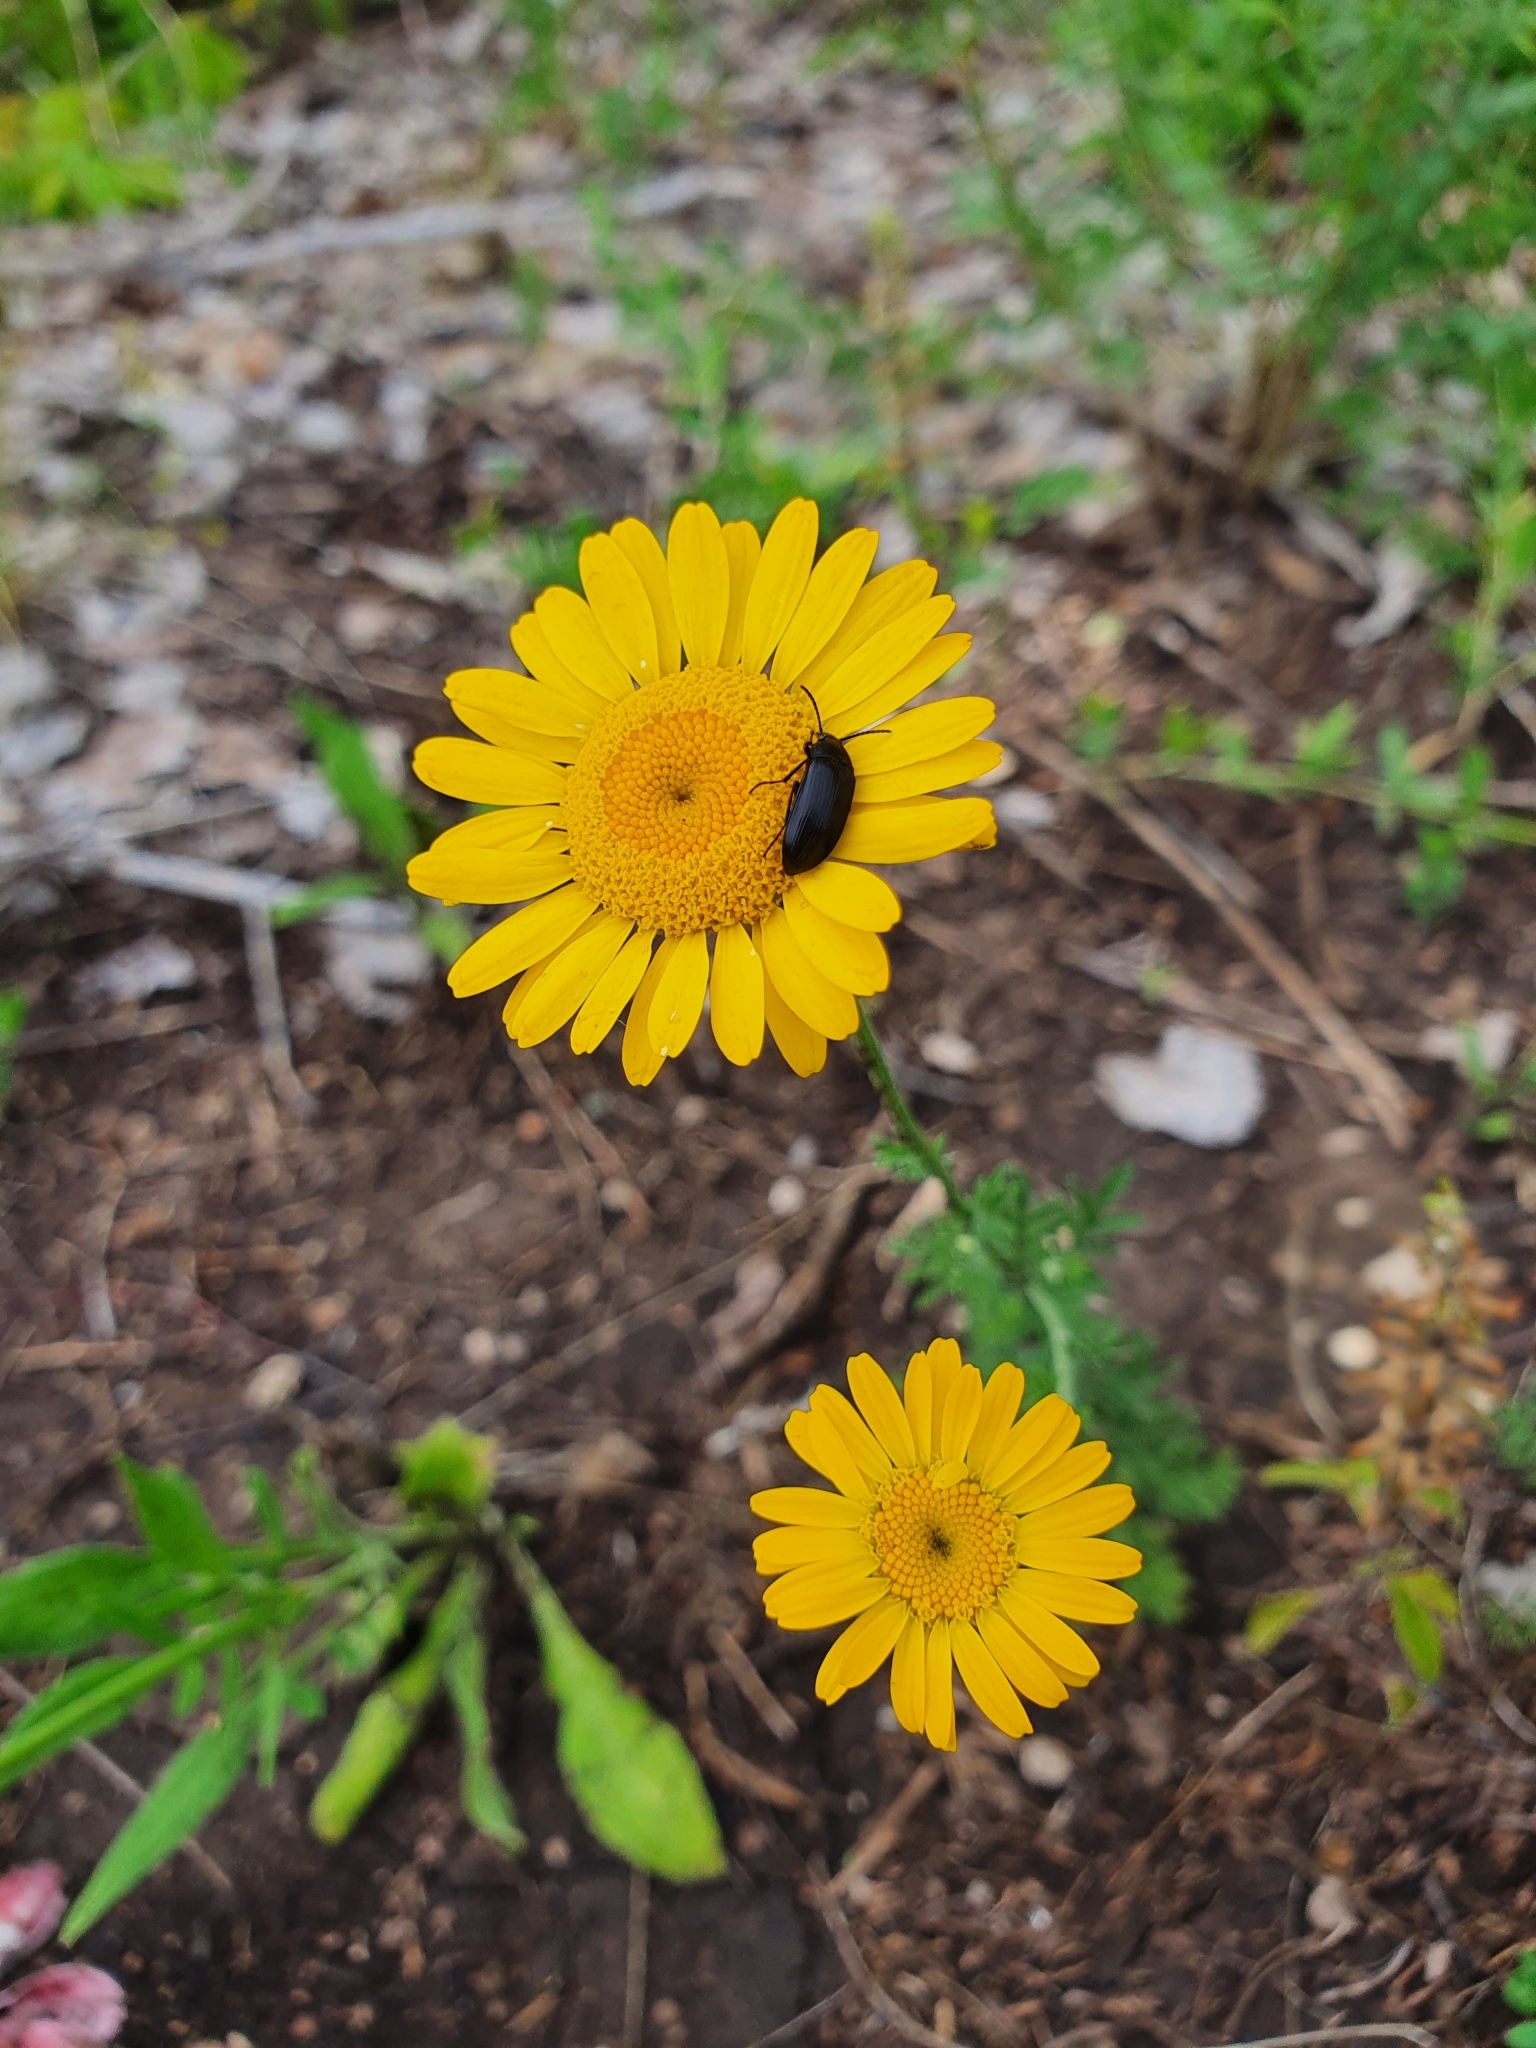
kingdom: Plantae
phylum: Tracheophyta
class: Magnoliopsida
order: Asterales
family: Asteraceae
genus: Cota
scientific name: Cota tinctoria
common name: Golden chamomile
